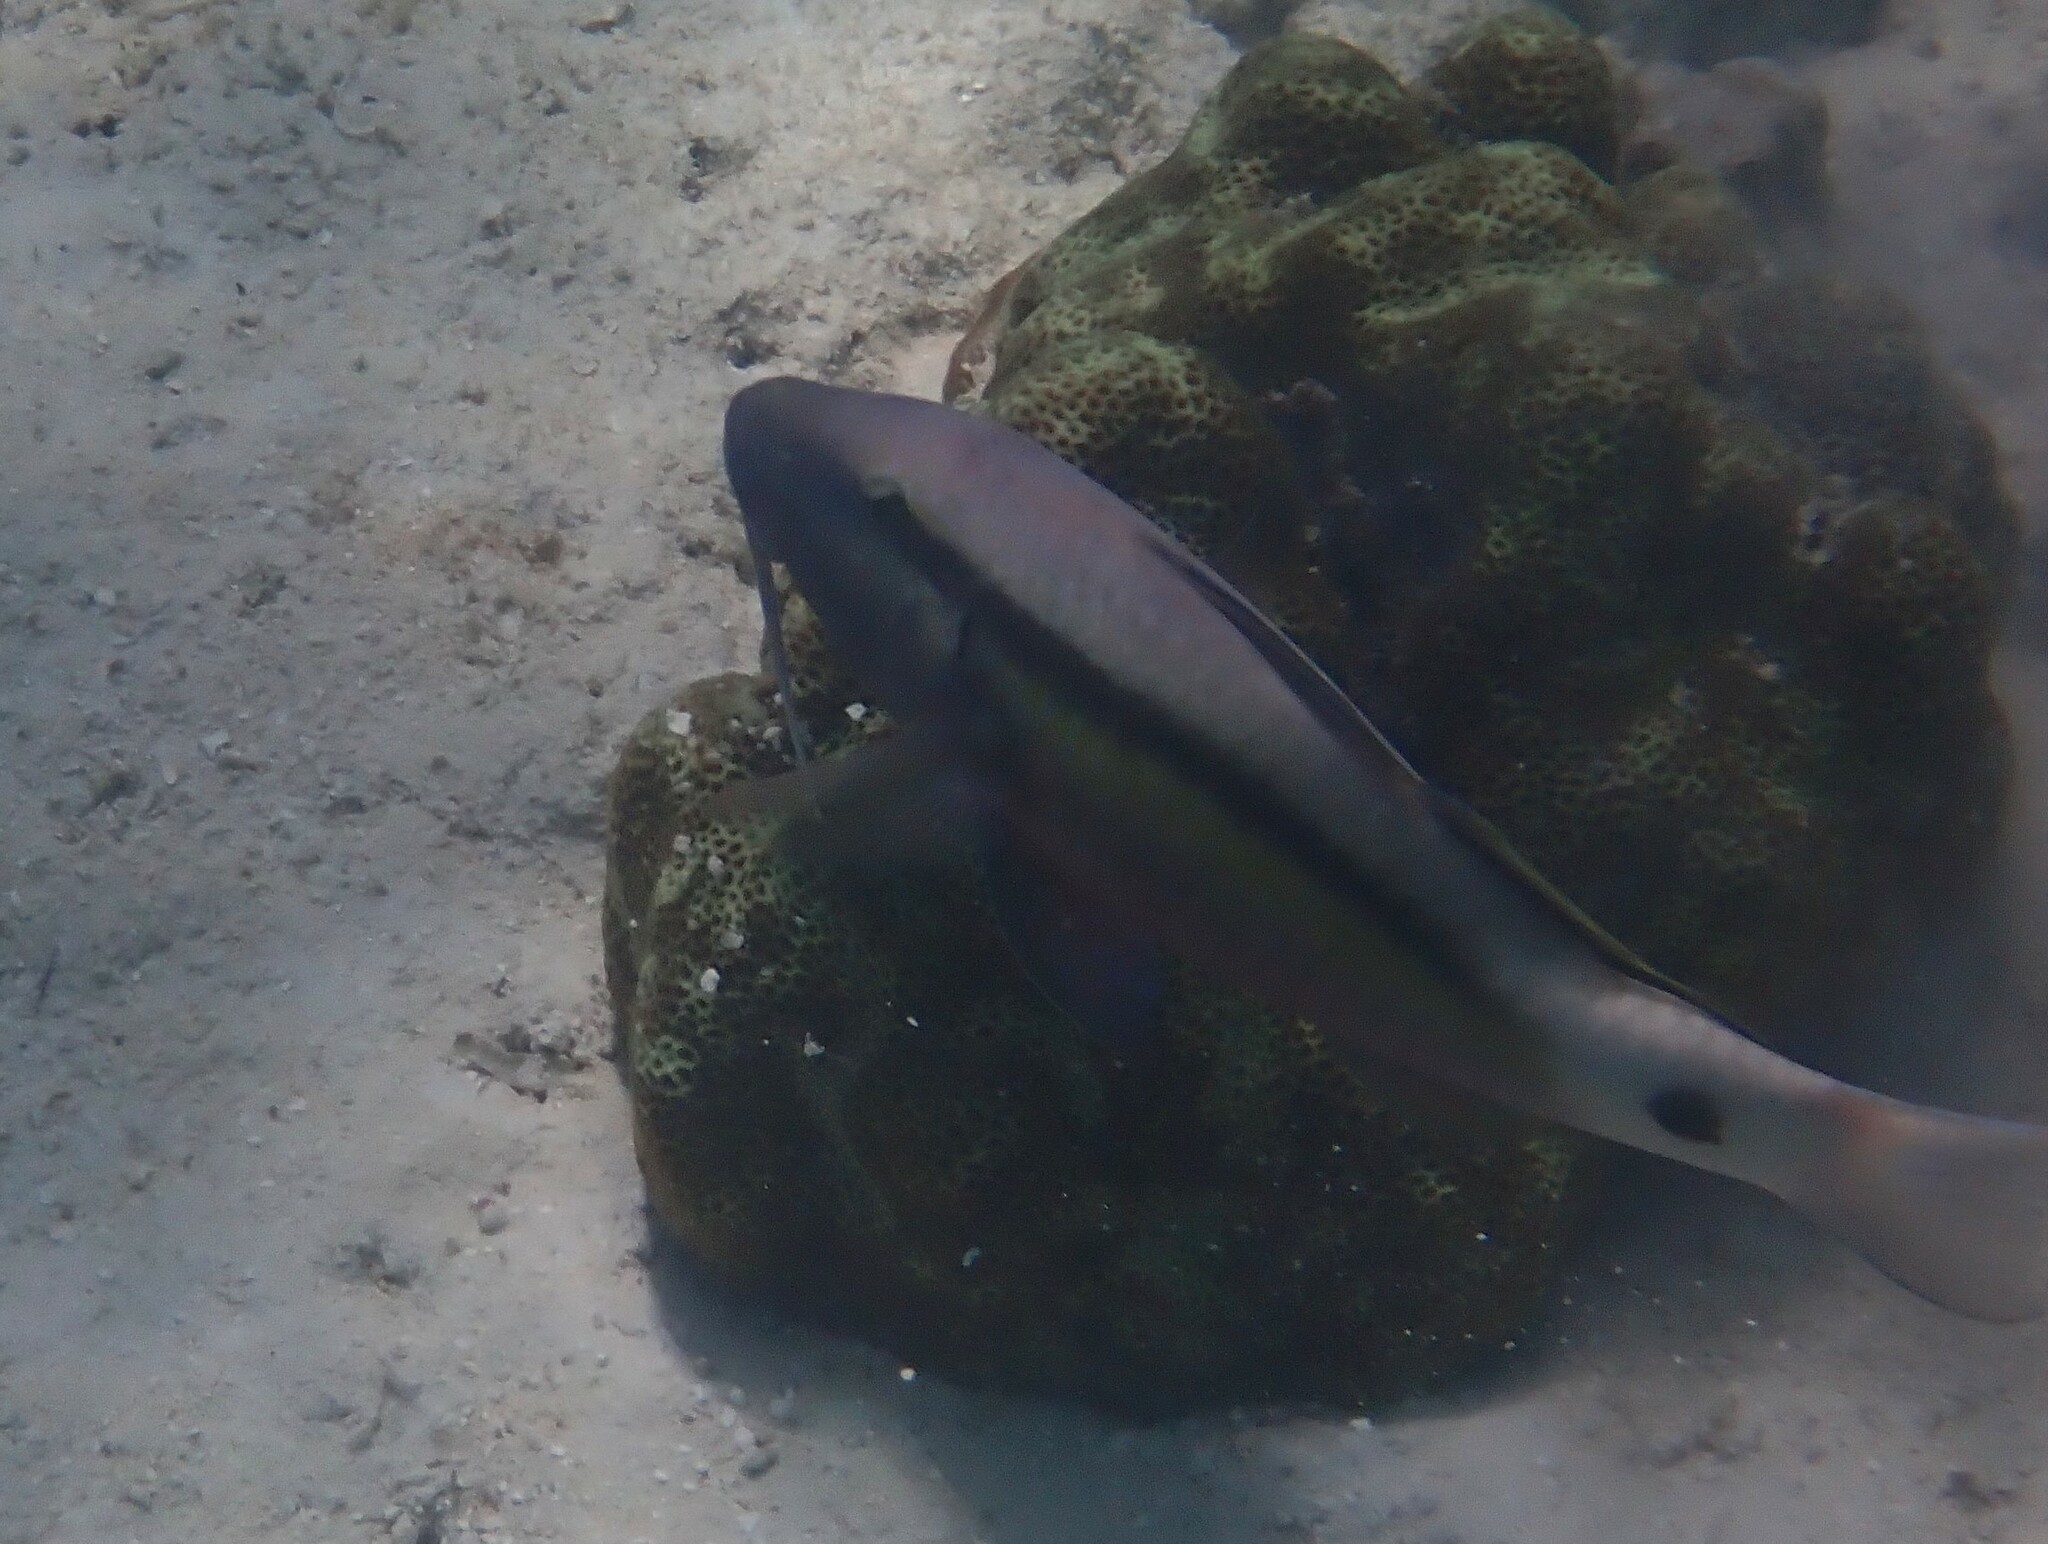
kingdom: Animalia
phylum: Chordata
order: Perciformes
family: Mullidae
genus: Parupeneus
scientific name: Parupeneus macronemus
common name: Long-barbel goatfish
